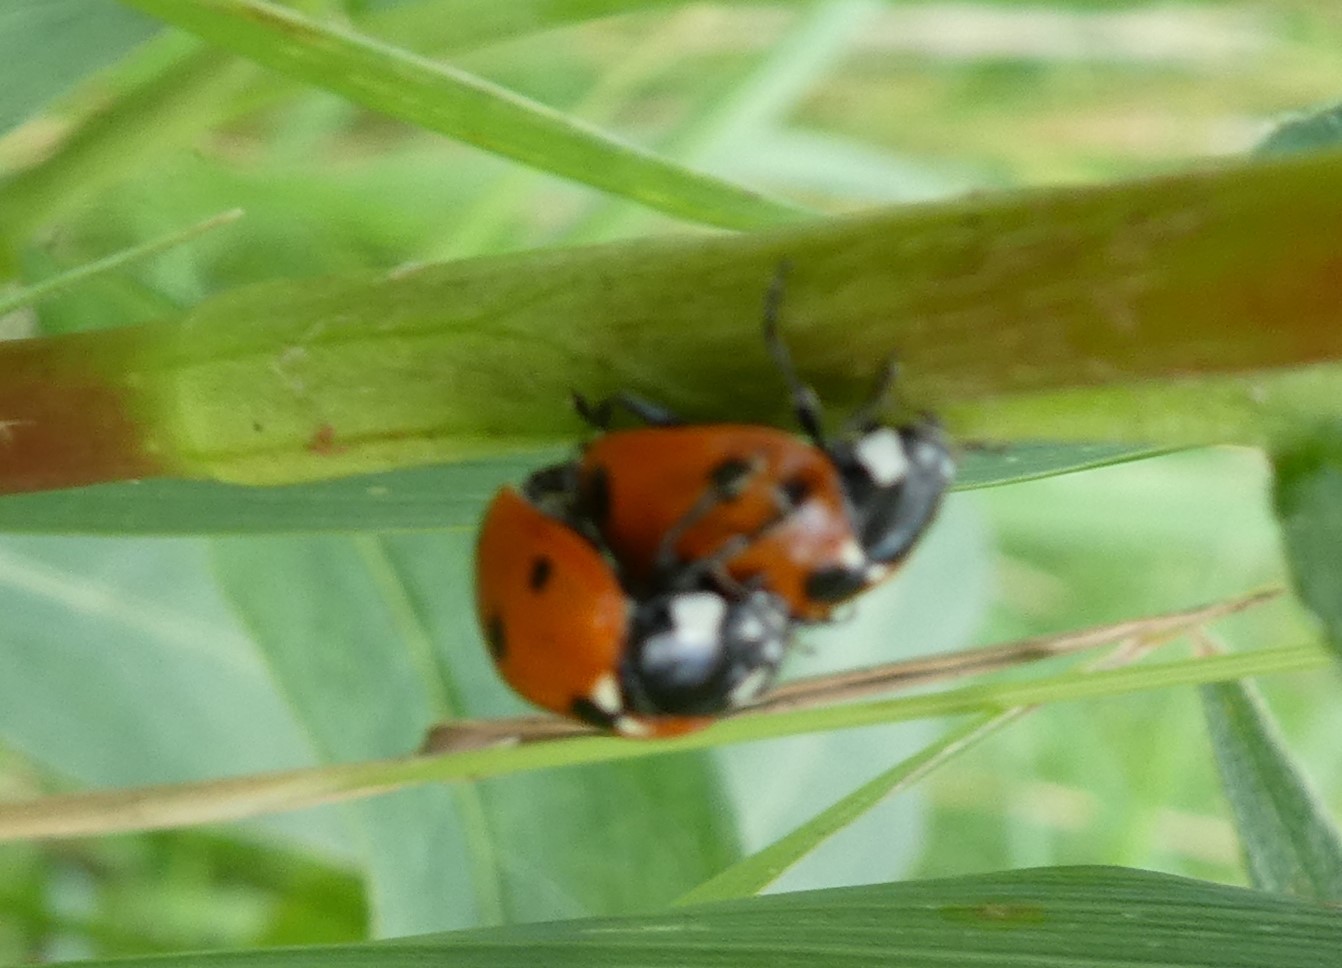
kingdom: Animalia
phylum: Arthropoda
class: Insecta
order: Coleoptera
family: Coccinellidae
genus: Coccinella
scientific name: Coccinella septempunctata
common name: Sevenspotted lady beetle
